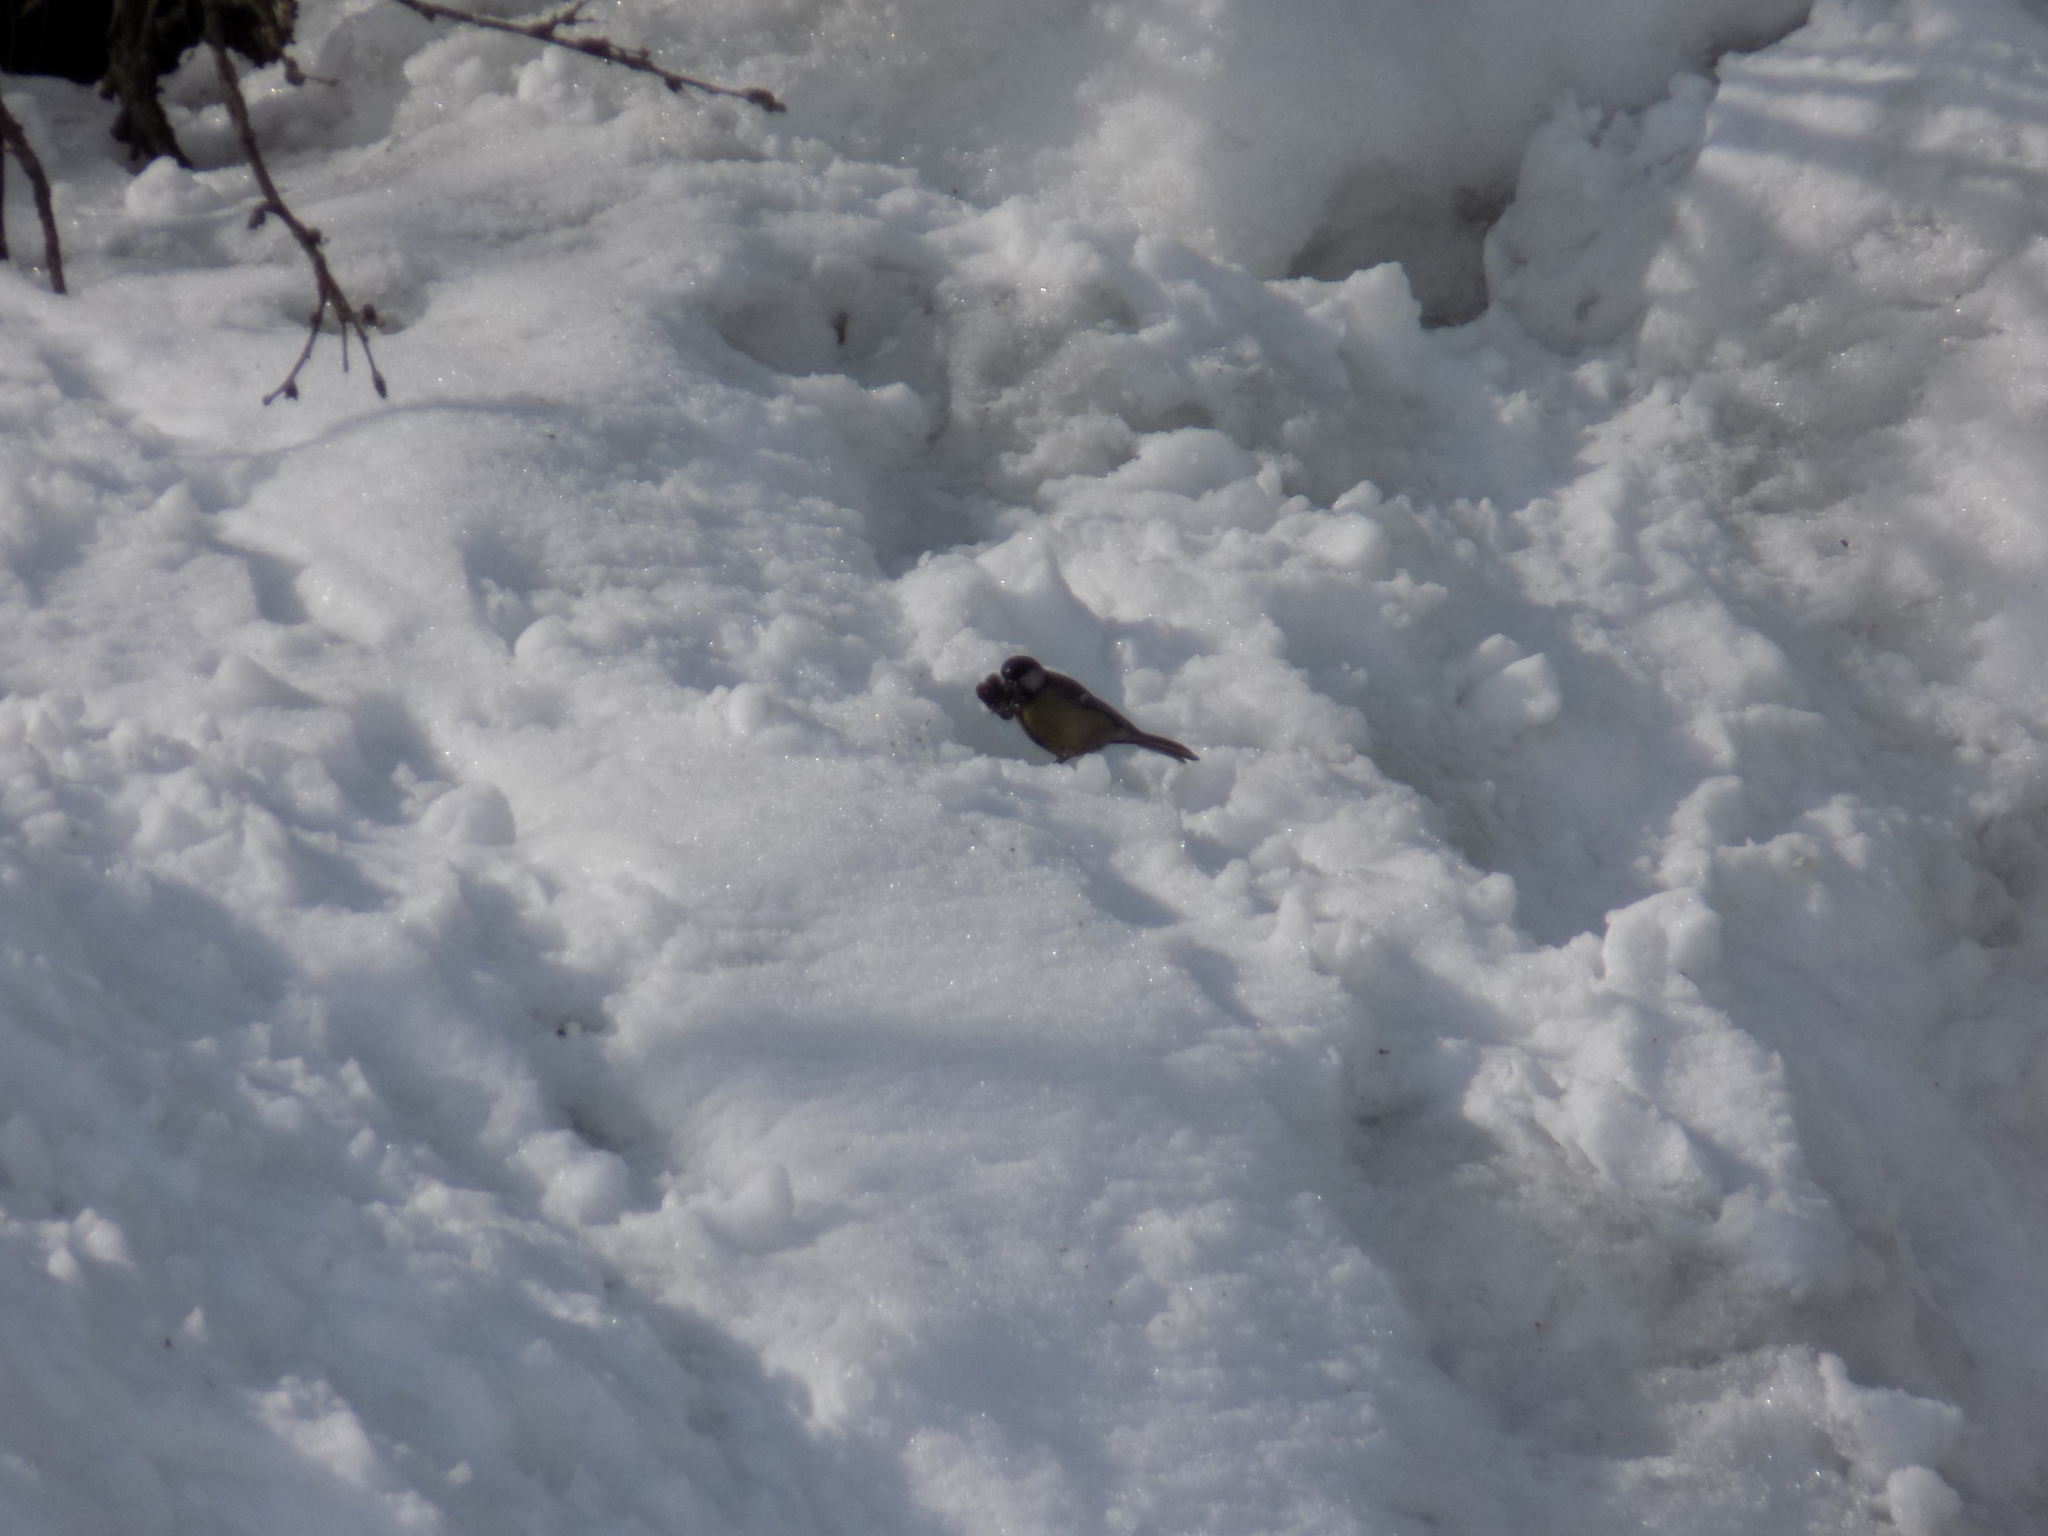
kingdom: Animalia
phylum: Chordata
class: Aves
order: Passeriformes
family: Paridae
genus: Parus
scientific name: Parus major
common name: Great tit
